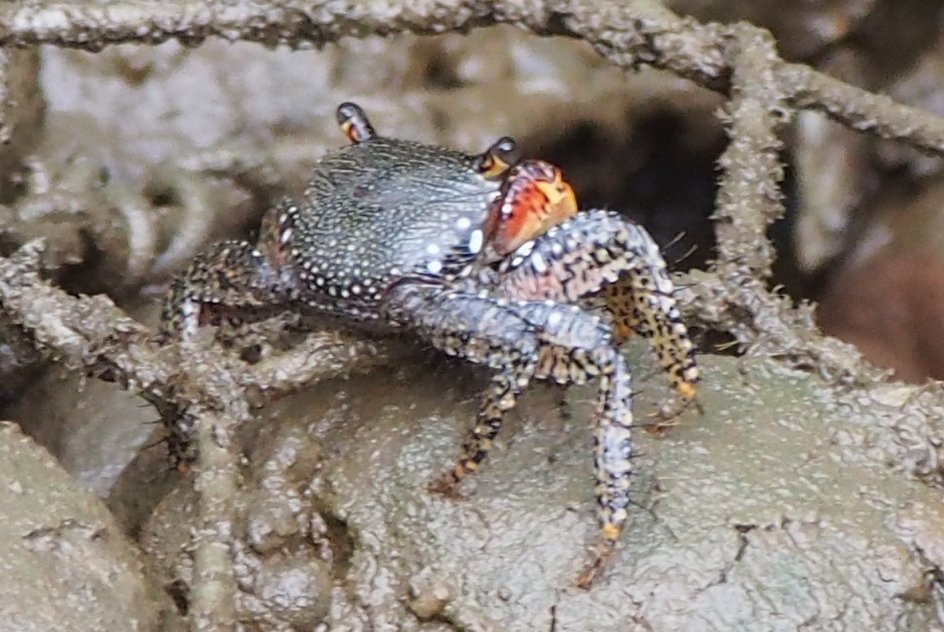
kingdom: Animalia
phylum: Arthropoda
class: Malacostraca
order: Decapoda
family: Grapsidae
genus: Goniopsis
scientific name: Goniopsis pulchra
